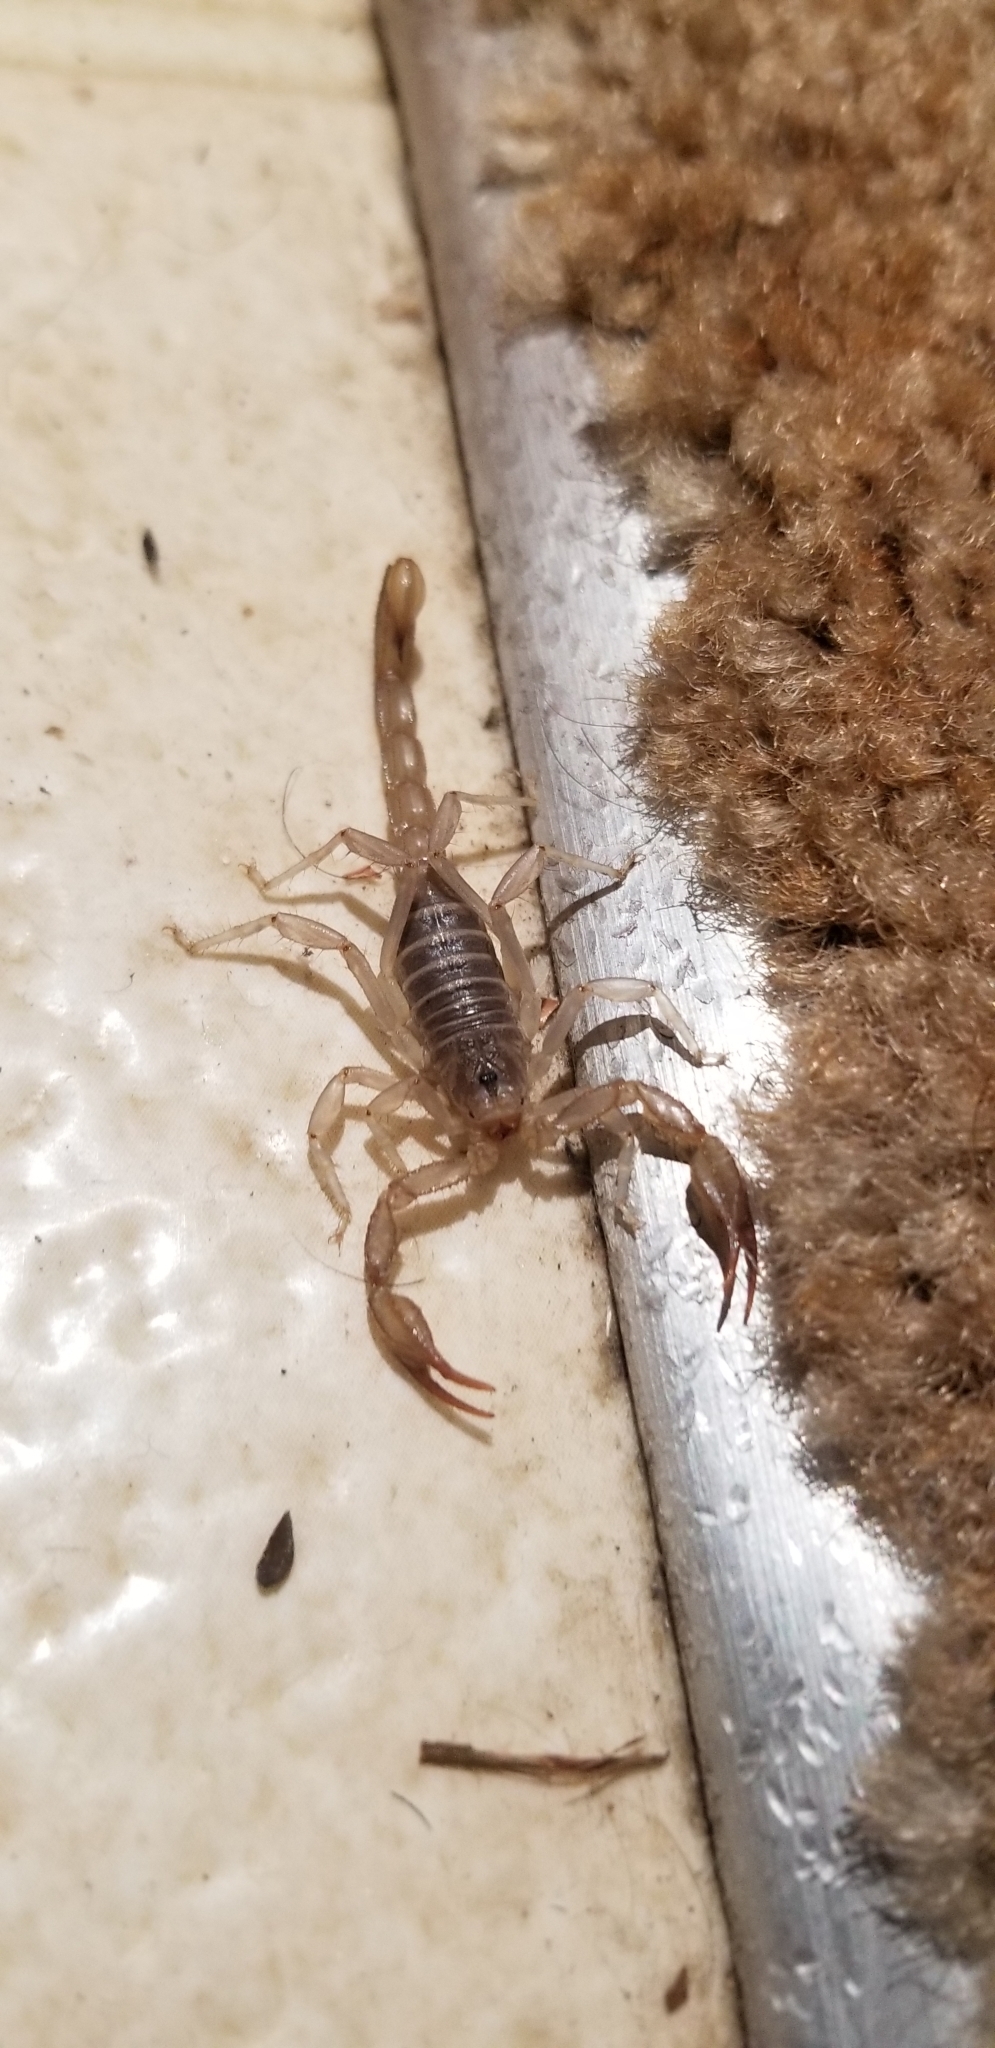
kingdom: Animalia
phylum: Arthropoda
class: Arachnida
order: Scorpiones
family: Vaejovidae
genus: Paruroctonus
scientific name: Paruroctonus boreus
